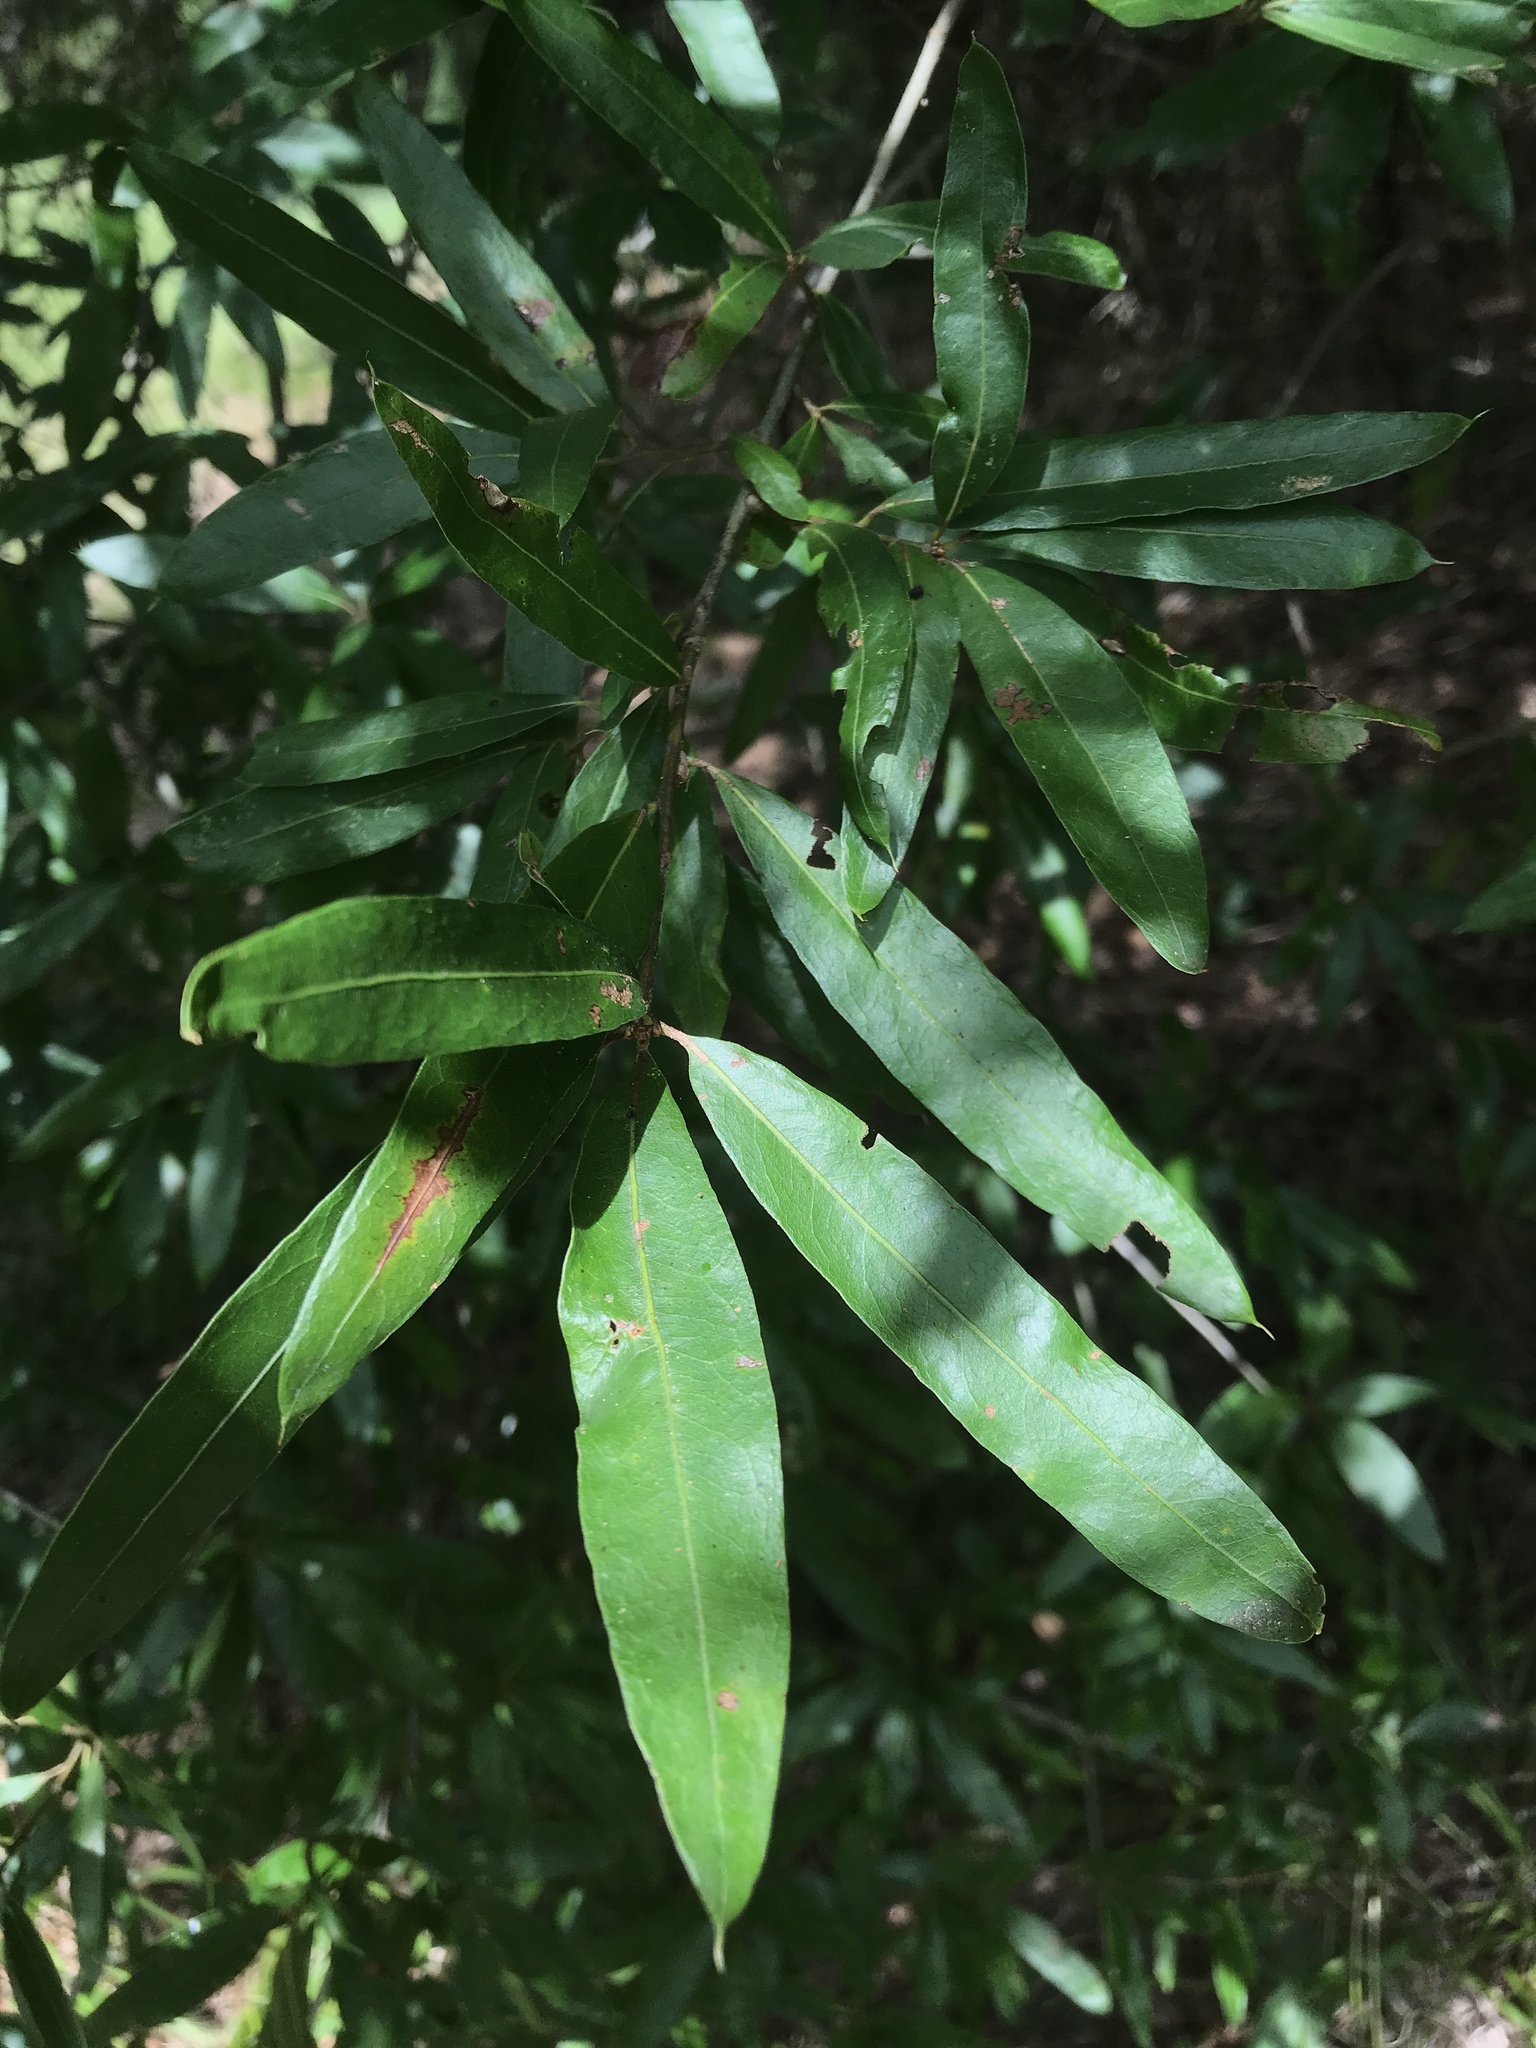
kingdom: Plantae
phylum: Tracheophyta
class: Magnoliopsida
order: Fagales
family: Fagaceae
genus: Quercus
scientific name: Quercus phellos
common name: Willow oak
